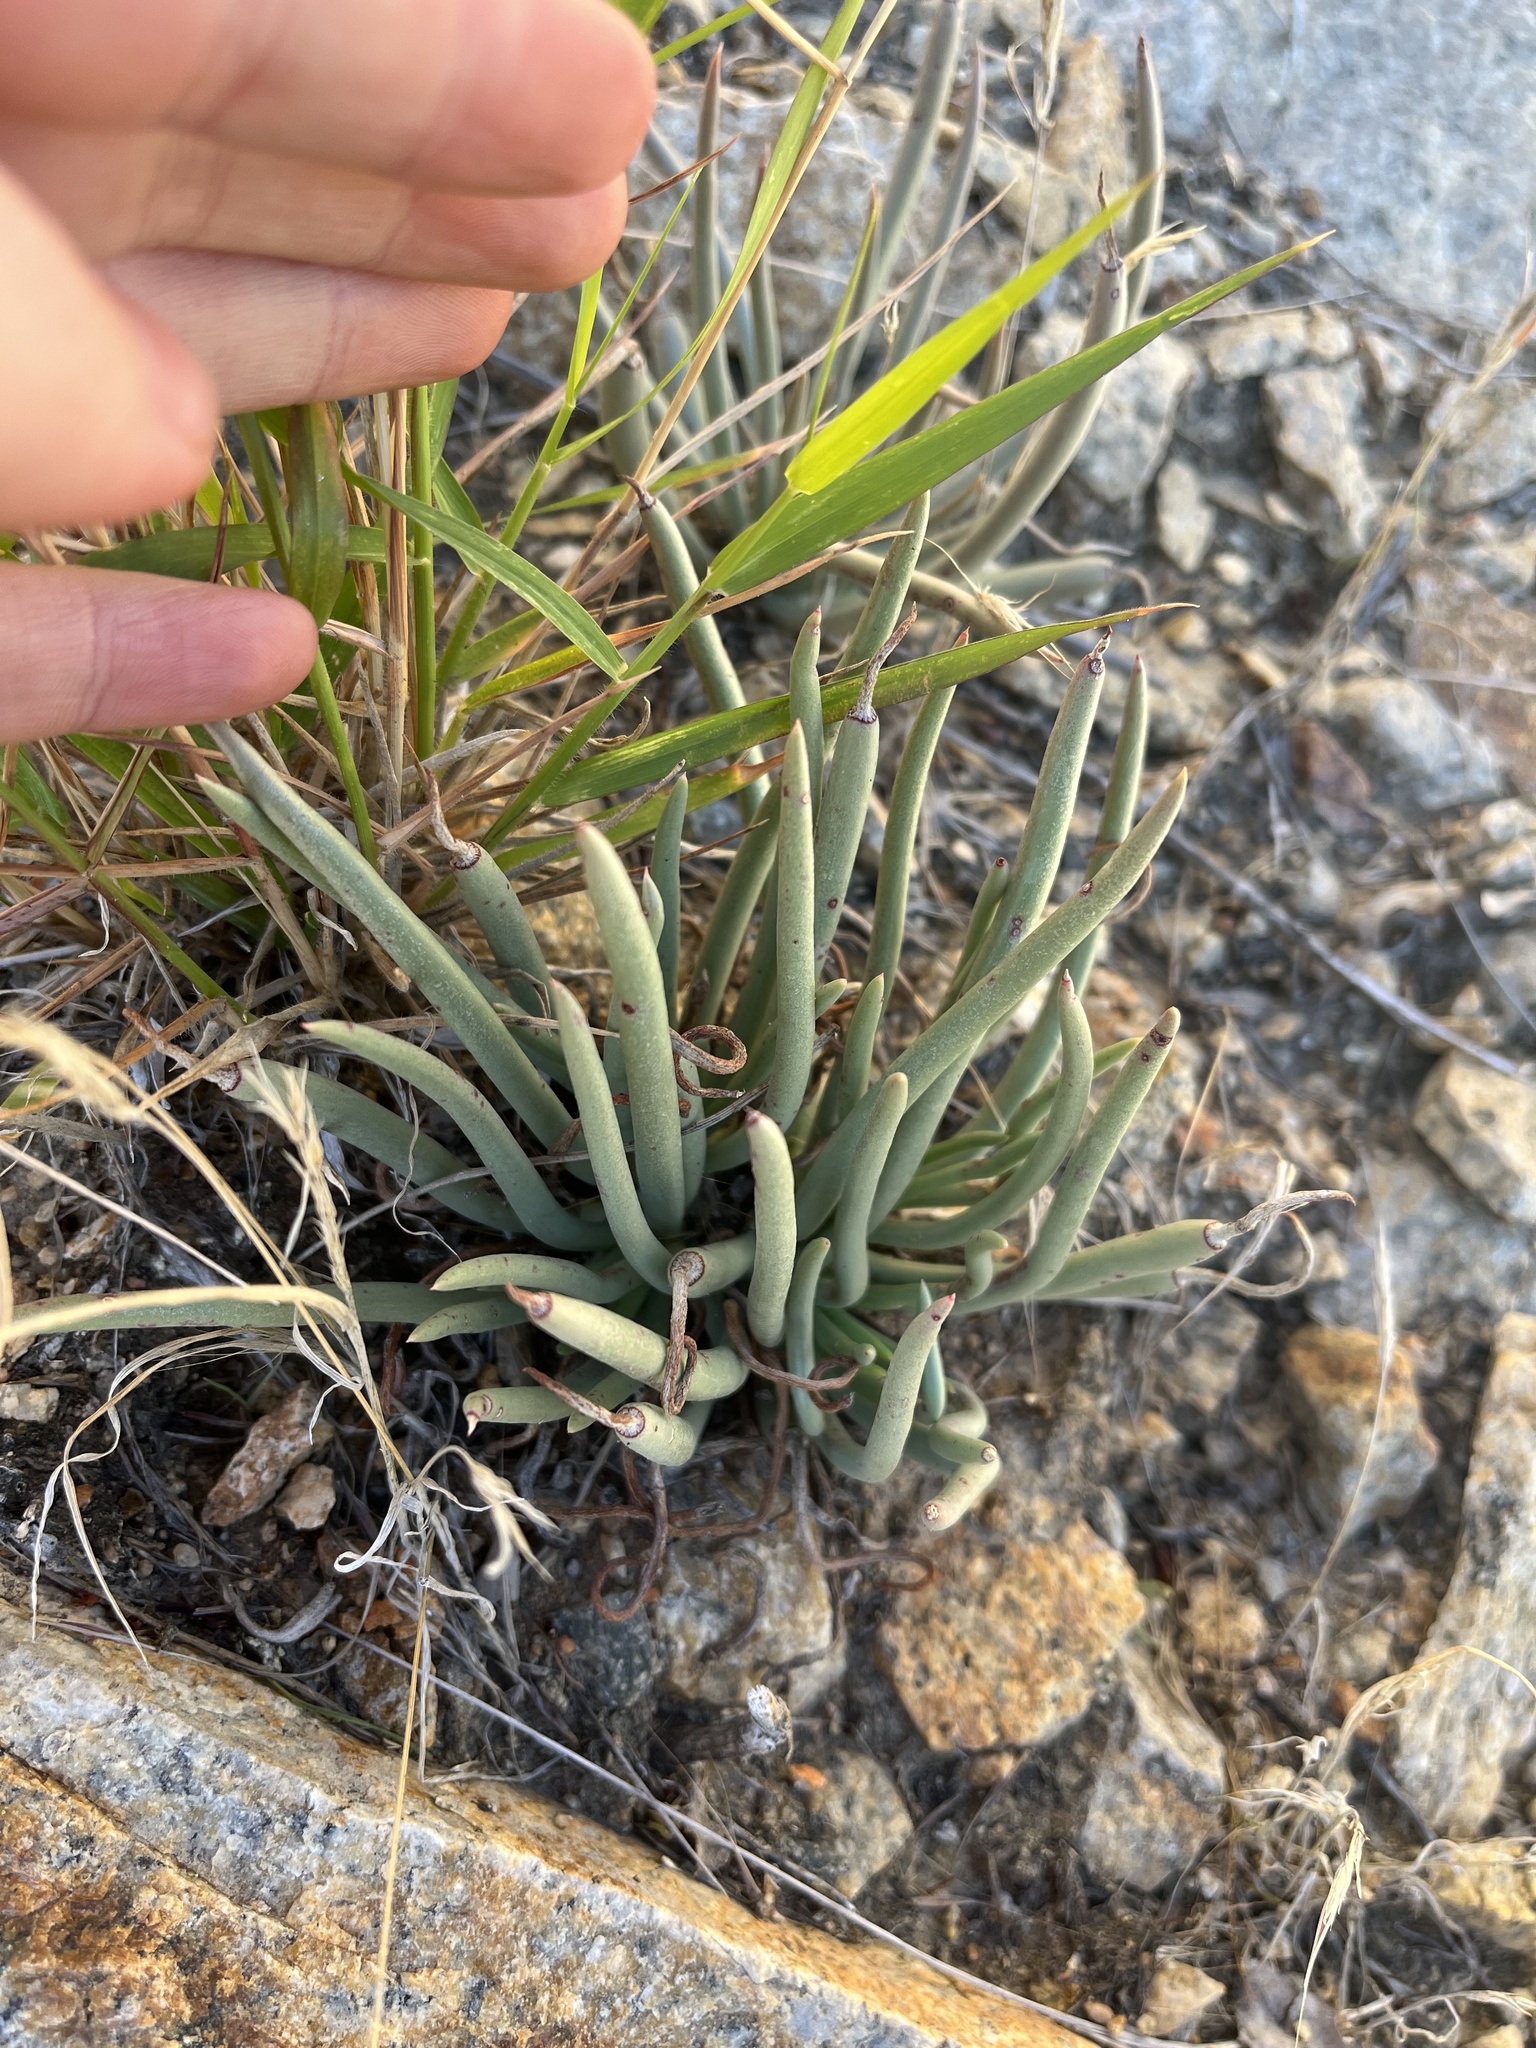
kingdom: Plantae
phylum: Tracheophyta
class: Magnoliopsida
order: Saxifragales
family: Crassulaceae
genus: Dudleya
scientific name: Dudleya edulis
